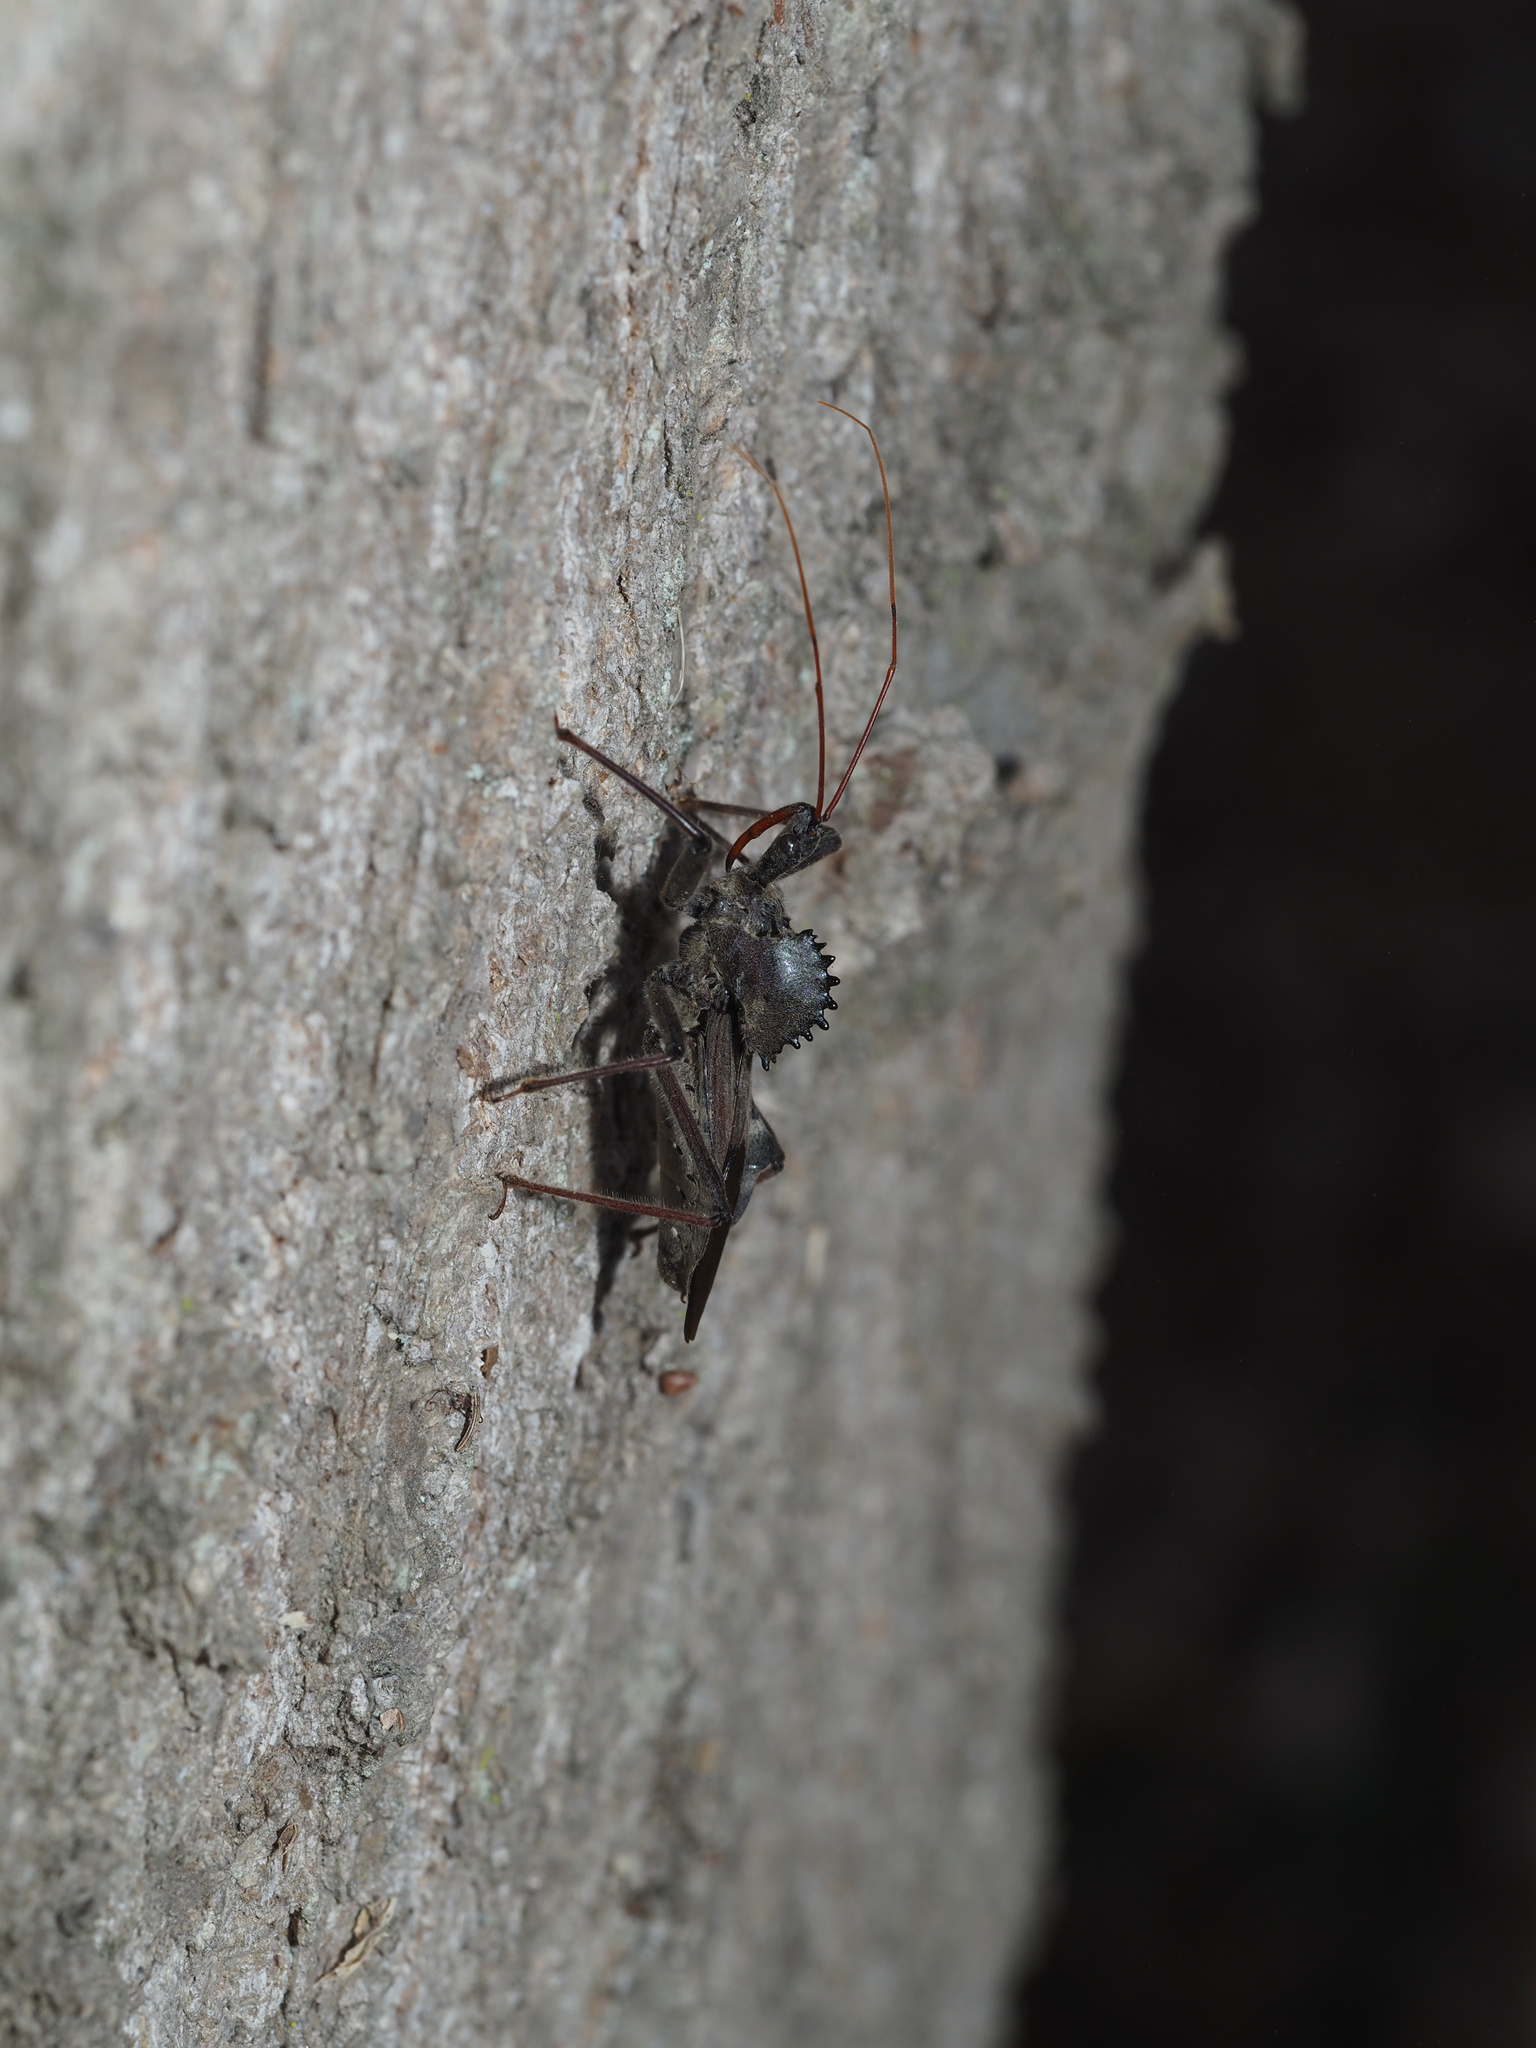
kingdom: Animalia
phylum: Arthropoda
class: Insecta
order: Hemiptera
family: Reduviidae
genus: Arilus
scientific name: Arilus cristatus
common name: North american wheel bug
